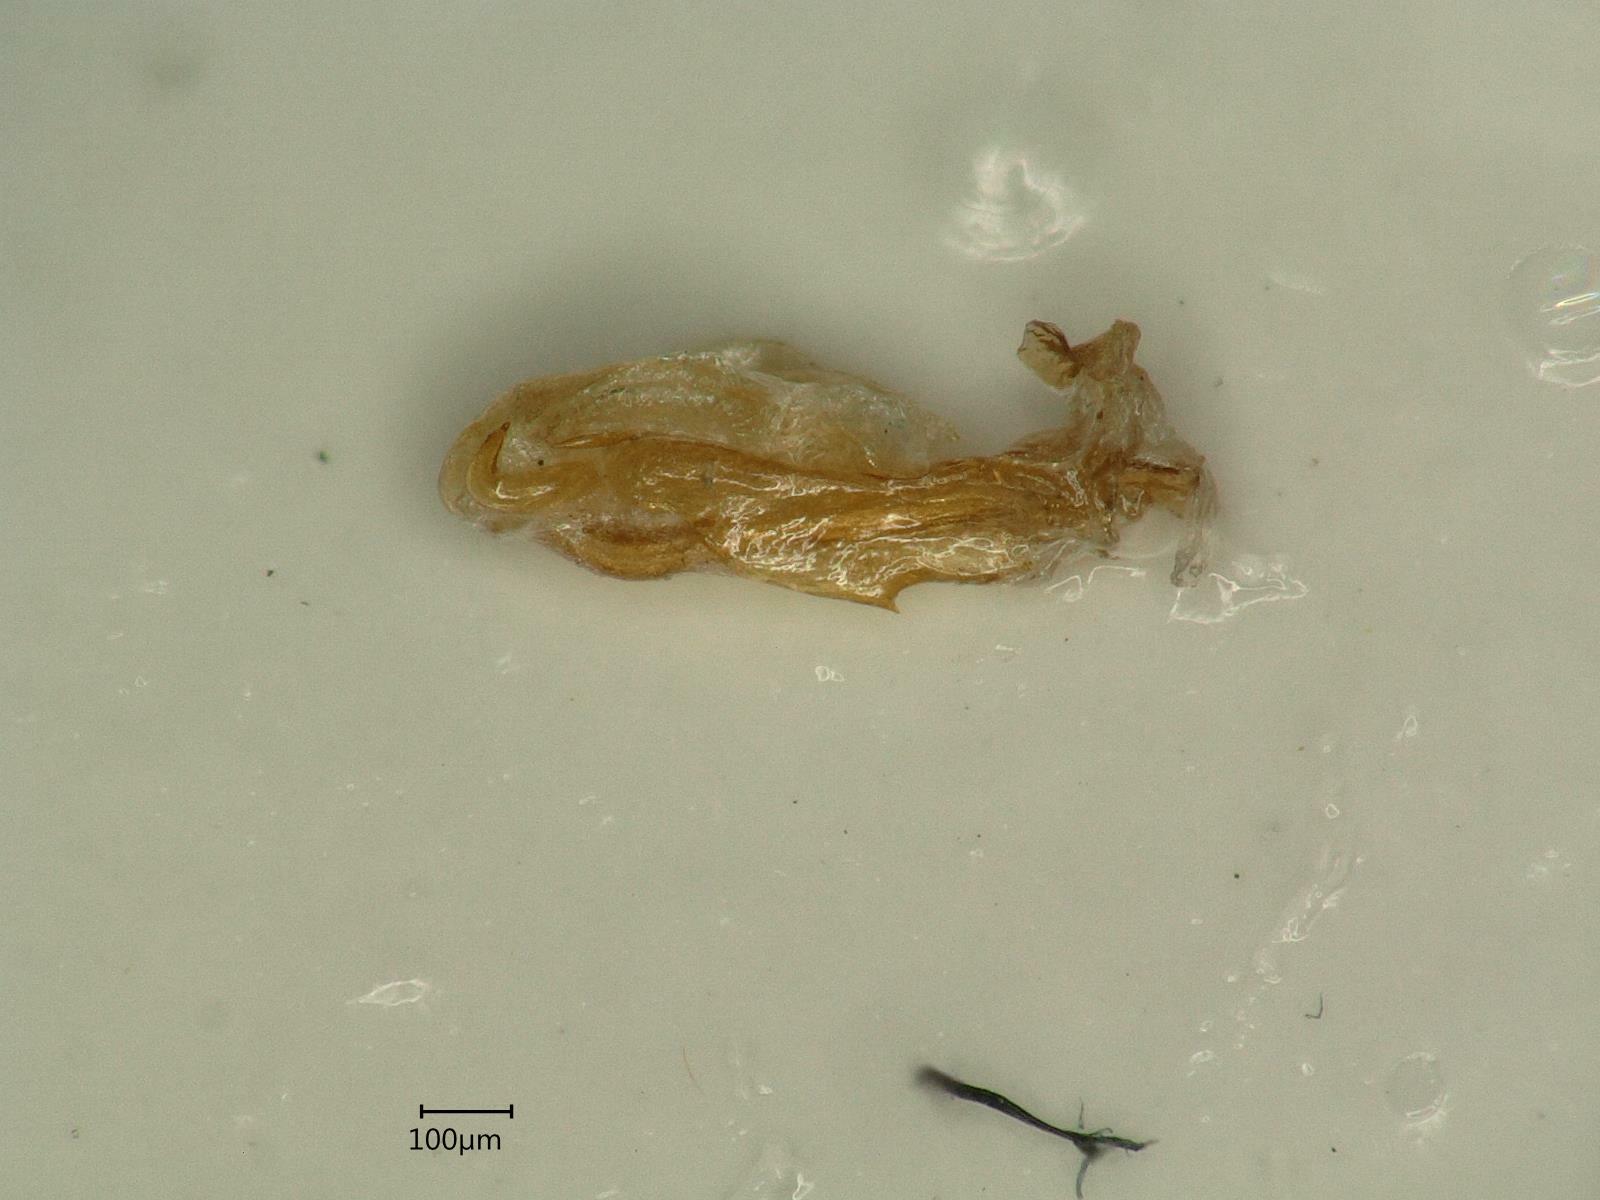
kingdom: Animalia
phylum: Arthropoda
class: Insecta
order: Hemiptera
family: Cixiidae
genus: Cixius
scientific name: Cixius distinguendus
